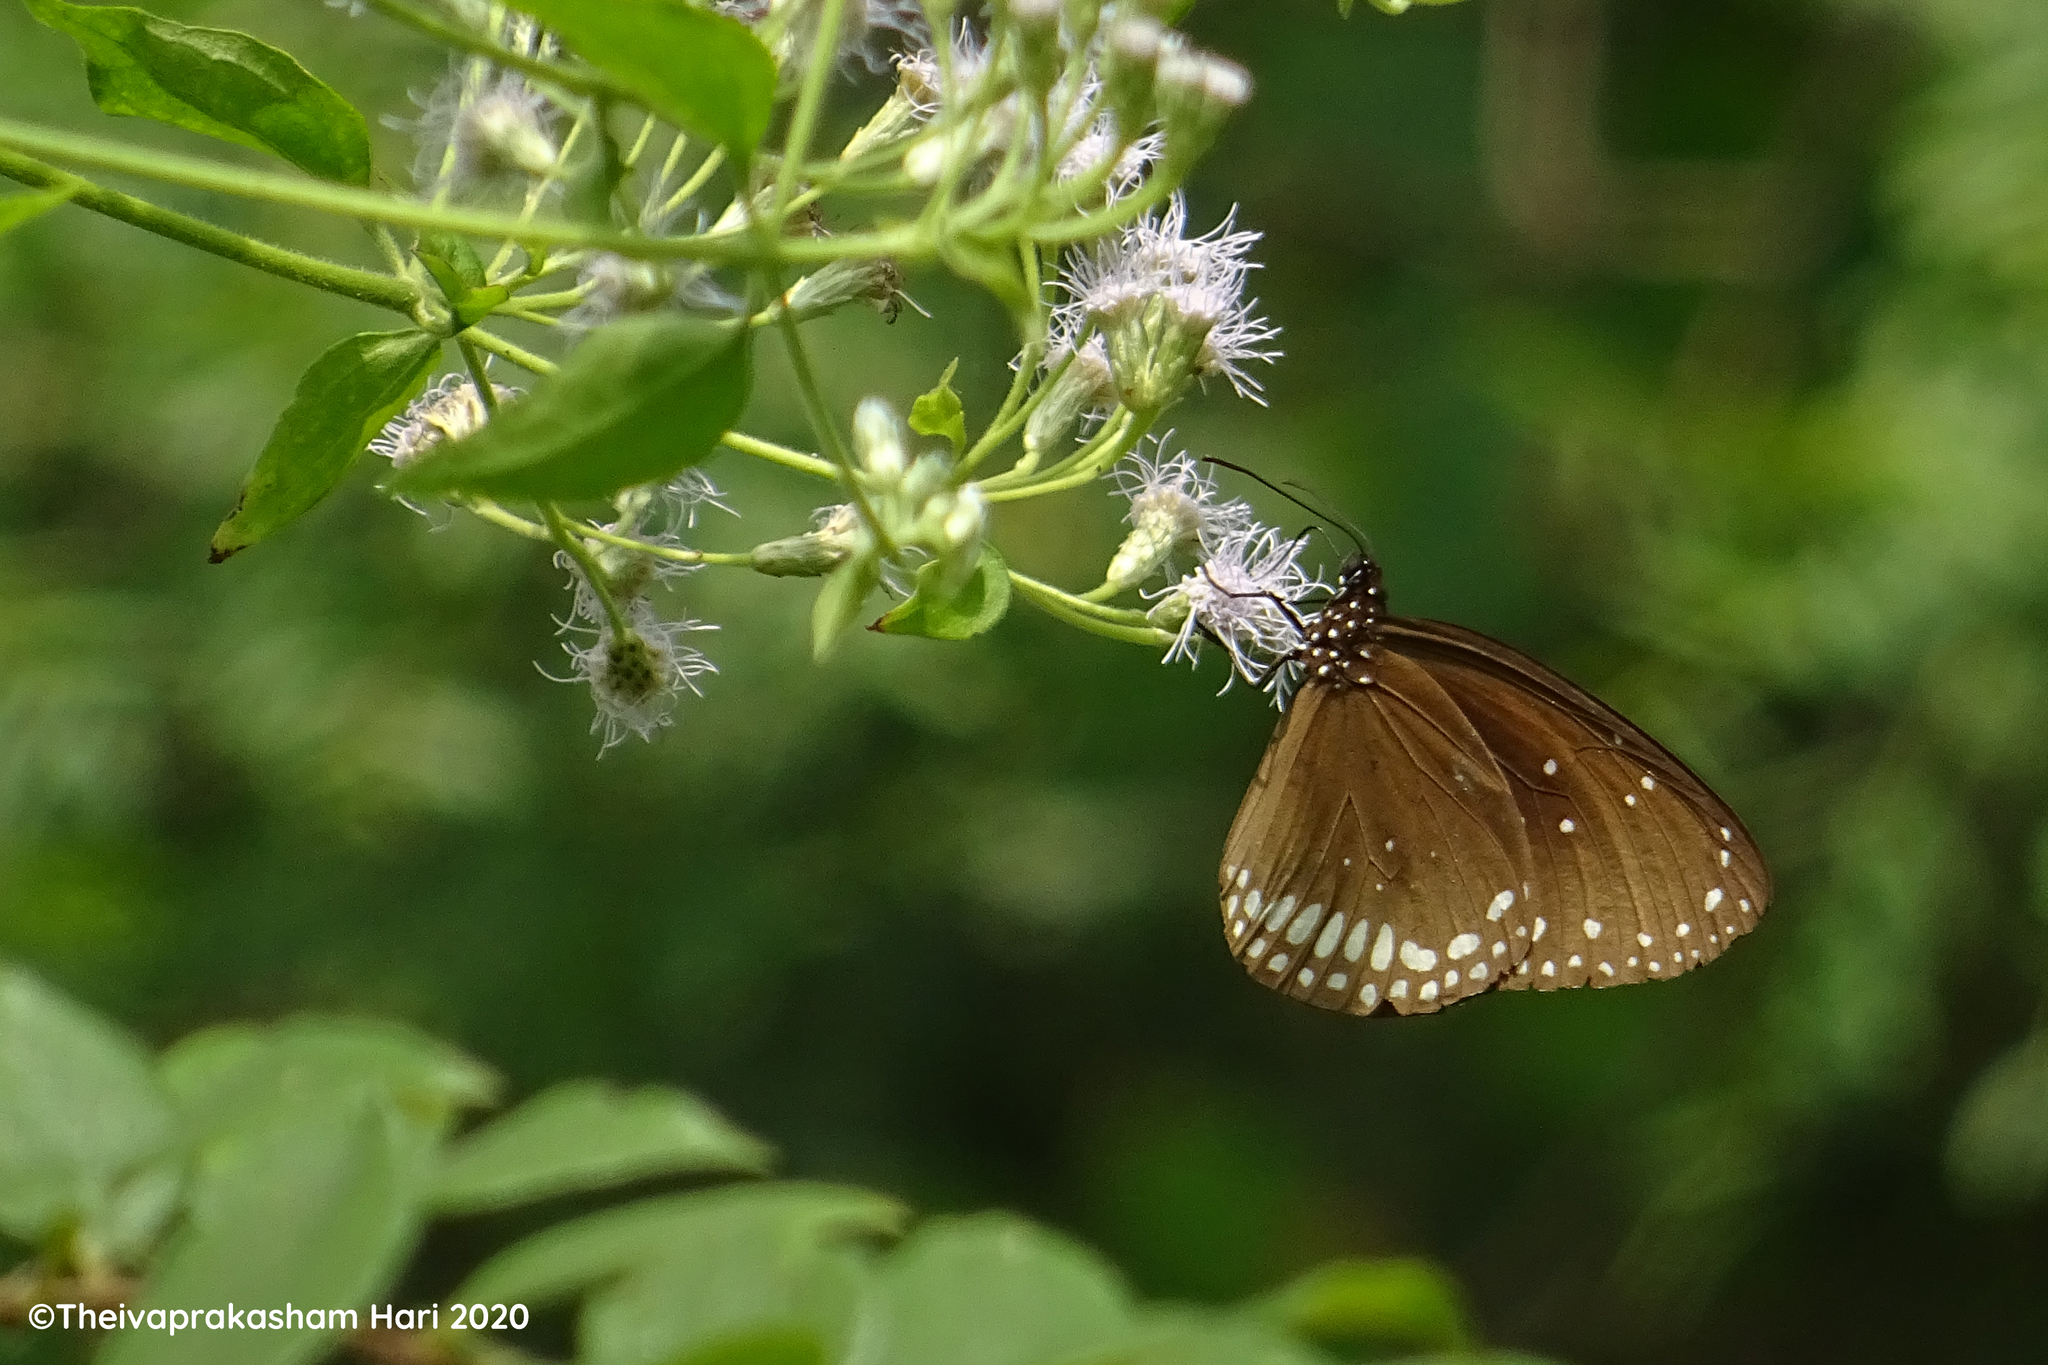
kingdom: Animalia
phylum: Arthropoda
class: Insecta
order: Lepidoptera
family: Nymphalidae
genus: Euploea
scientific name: Euploea sylvester
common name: Double-branded crow butterfly
